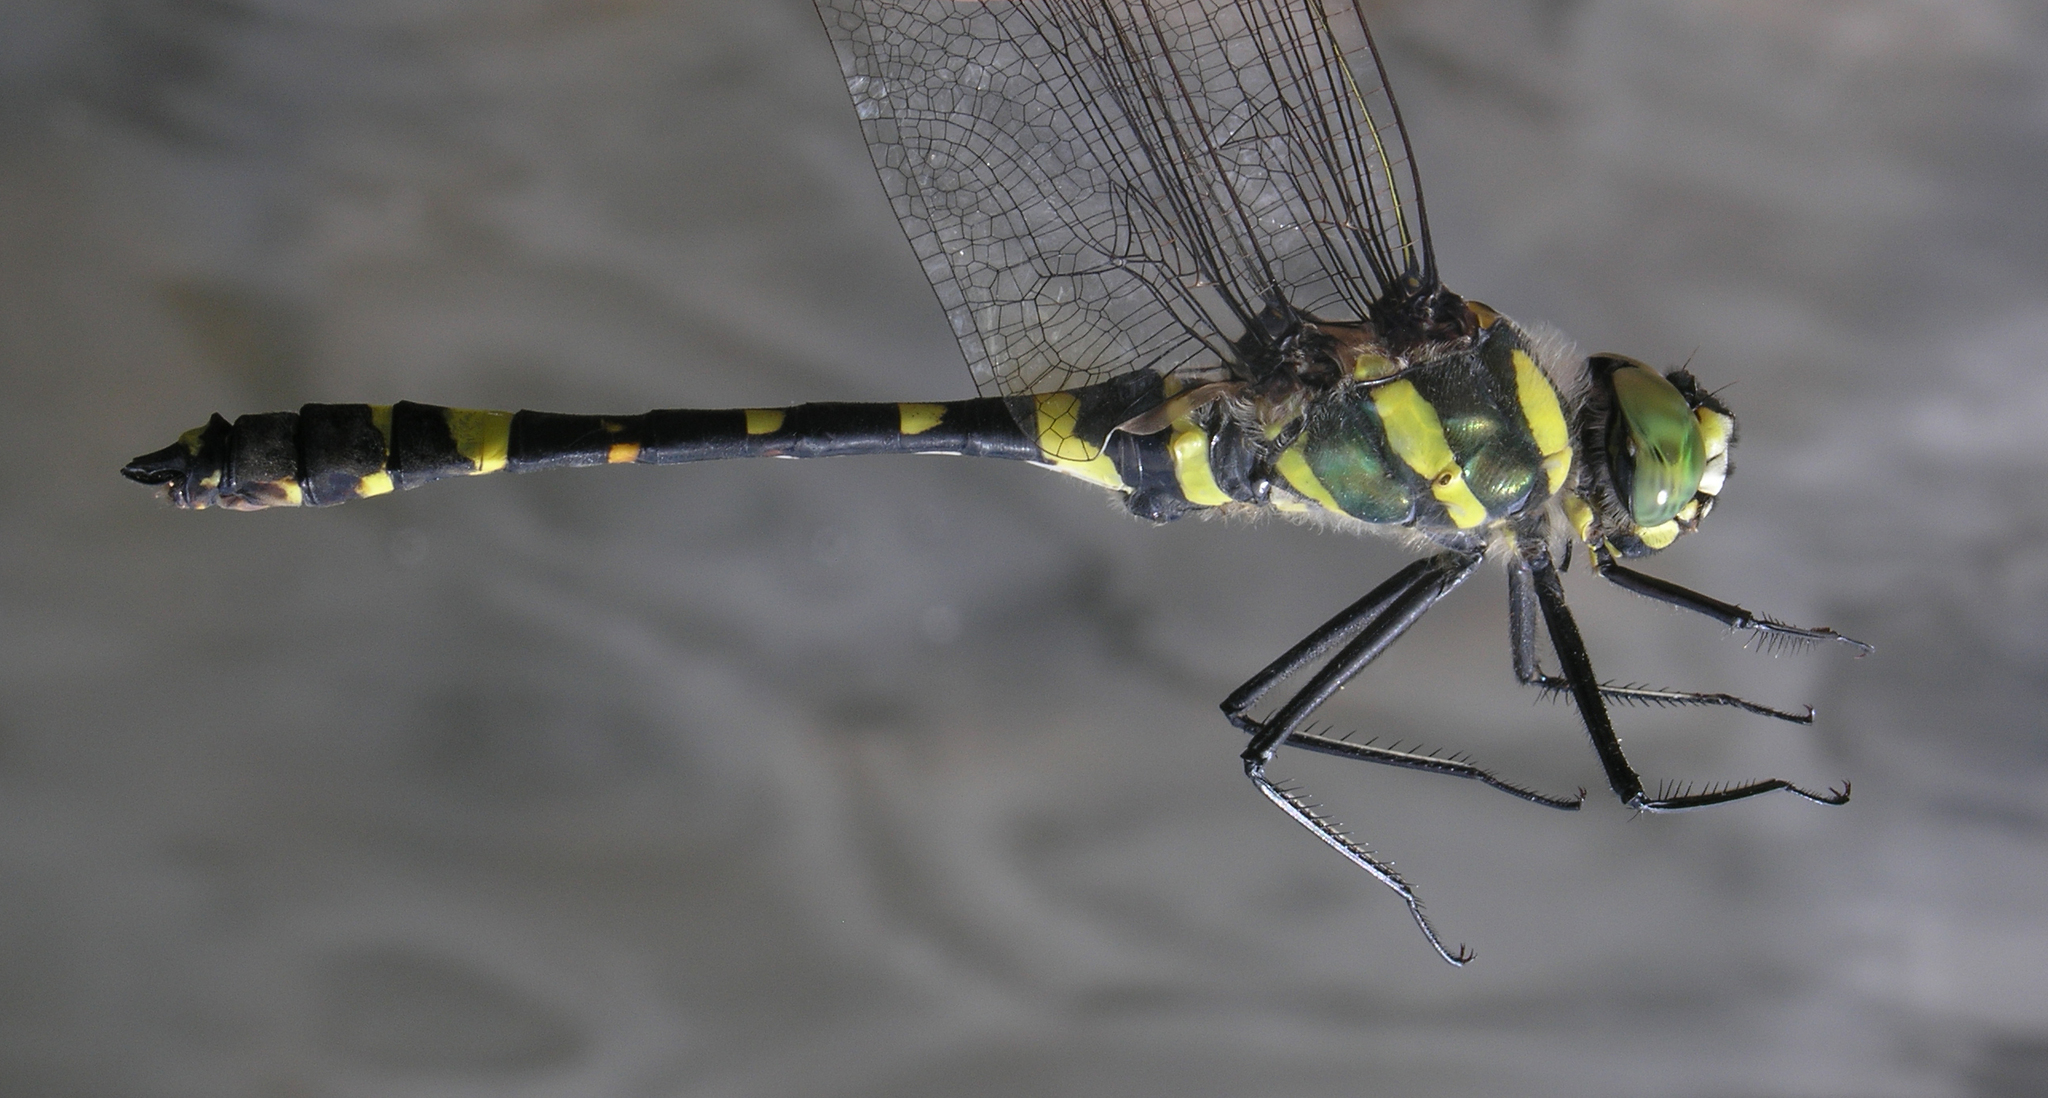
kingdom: Animalia
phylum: Arthropoda
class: Insecta
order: Odonata
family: Macromiidae
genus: Epophthalmia
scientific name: Epophthalmia elegans
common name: Regal pond cruiser
